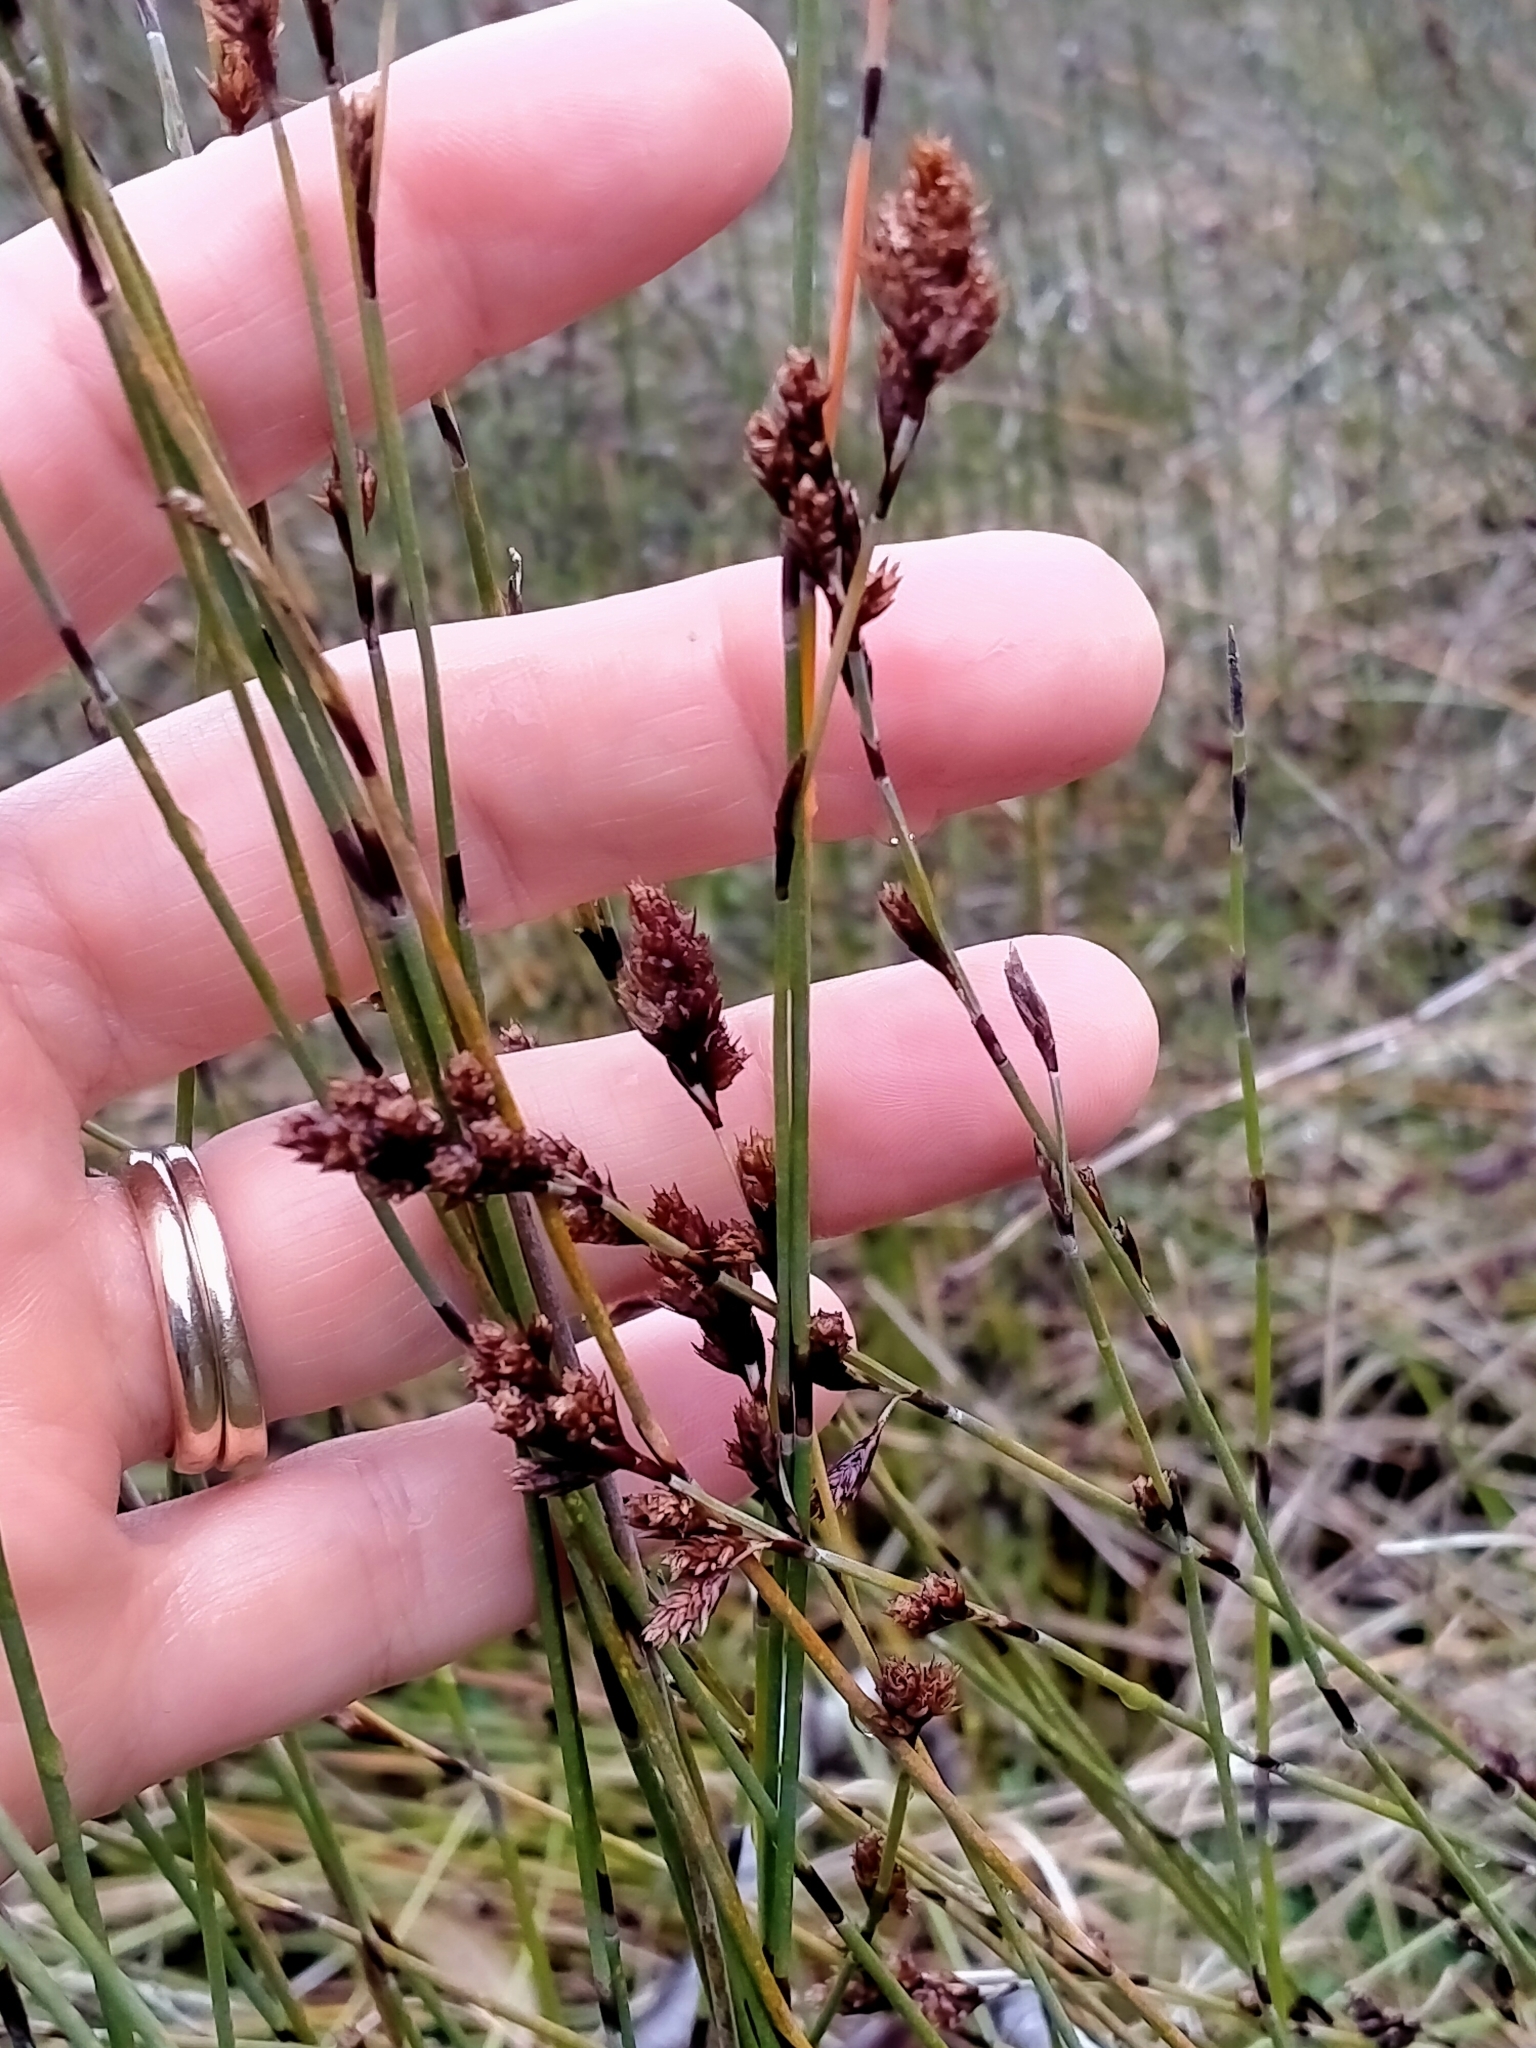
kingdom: Plantae
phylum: Tracheophyta
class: Liliopsida
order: Poales
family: Restionaceae
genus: Apodasmia
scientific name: Apodasmia similis
